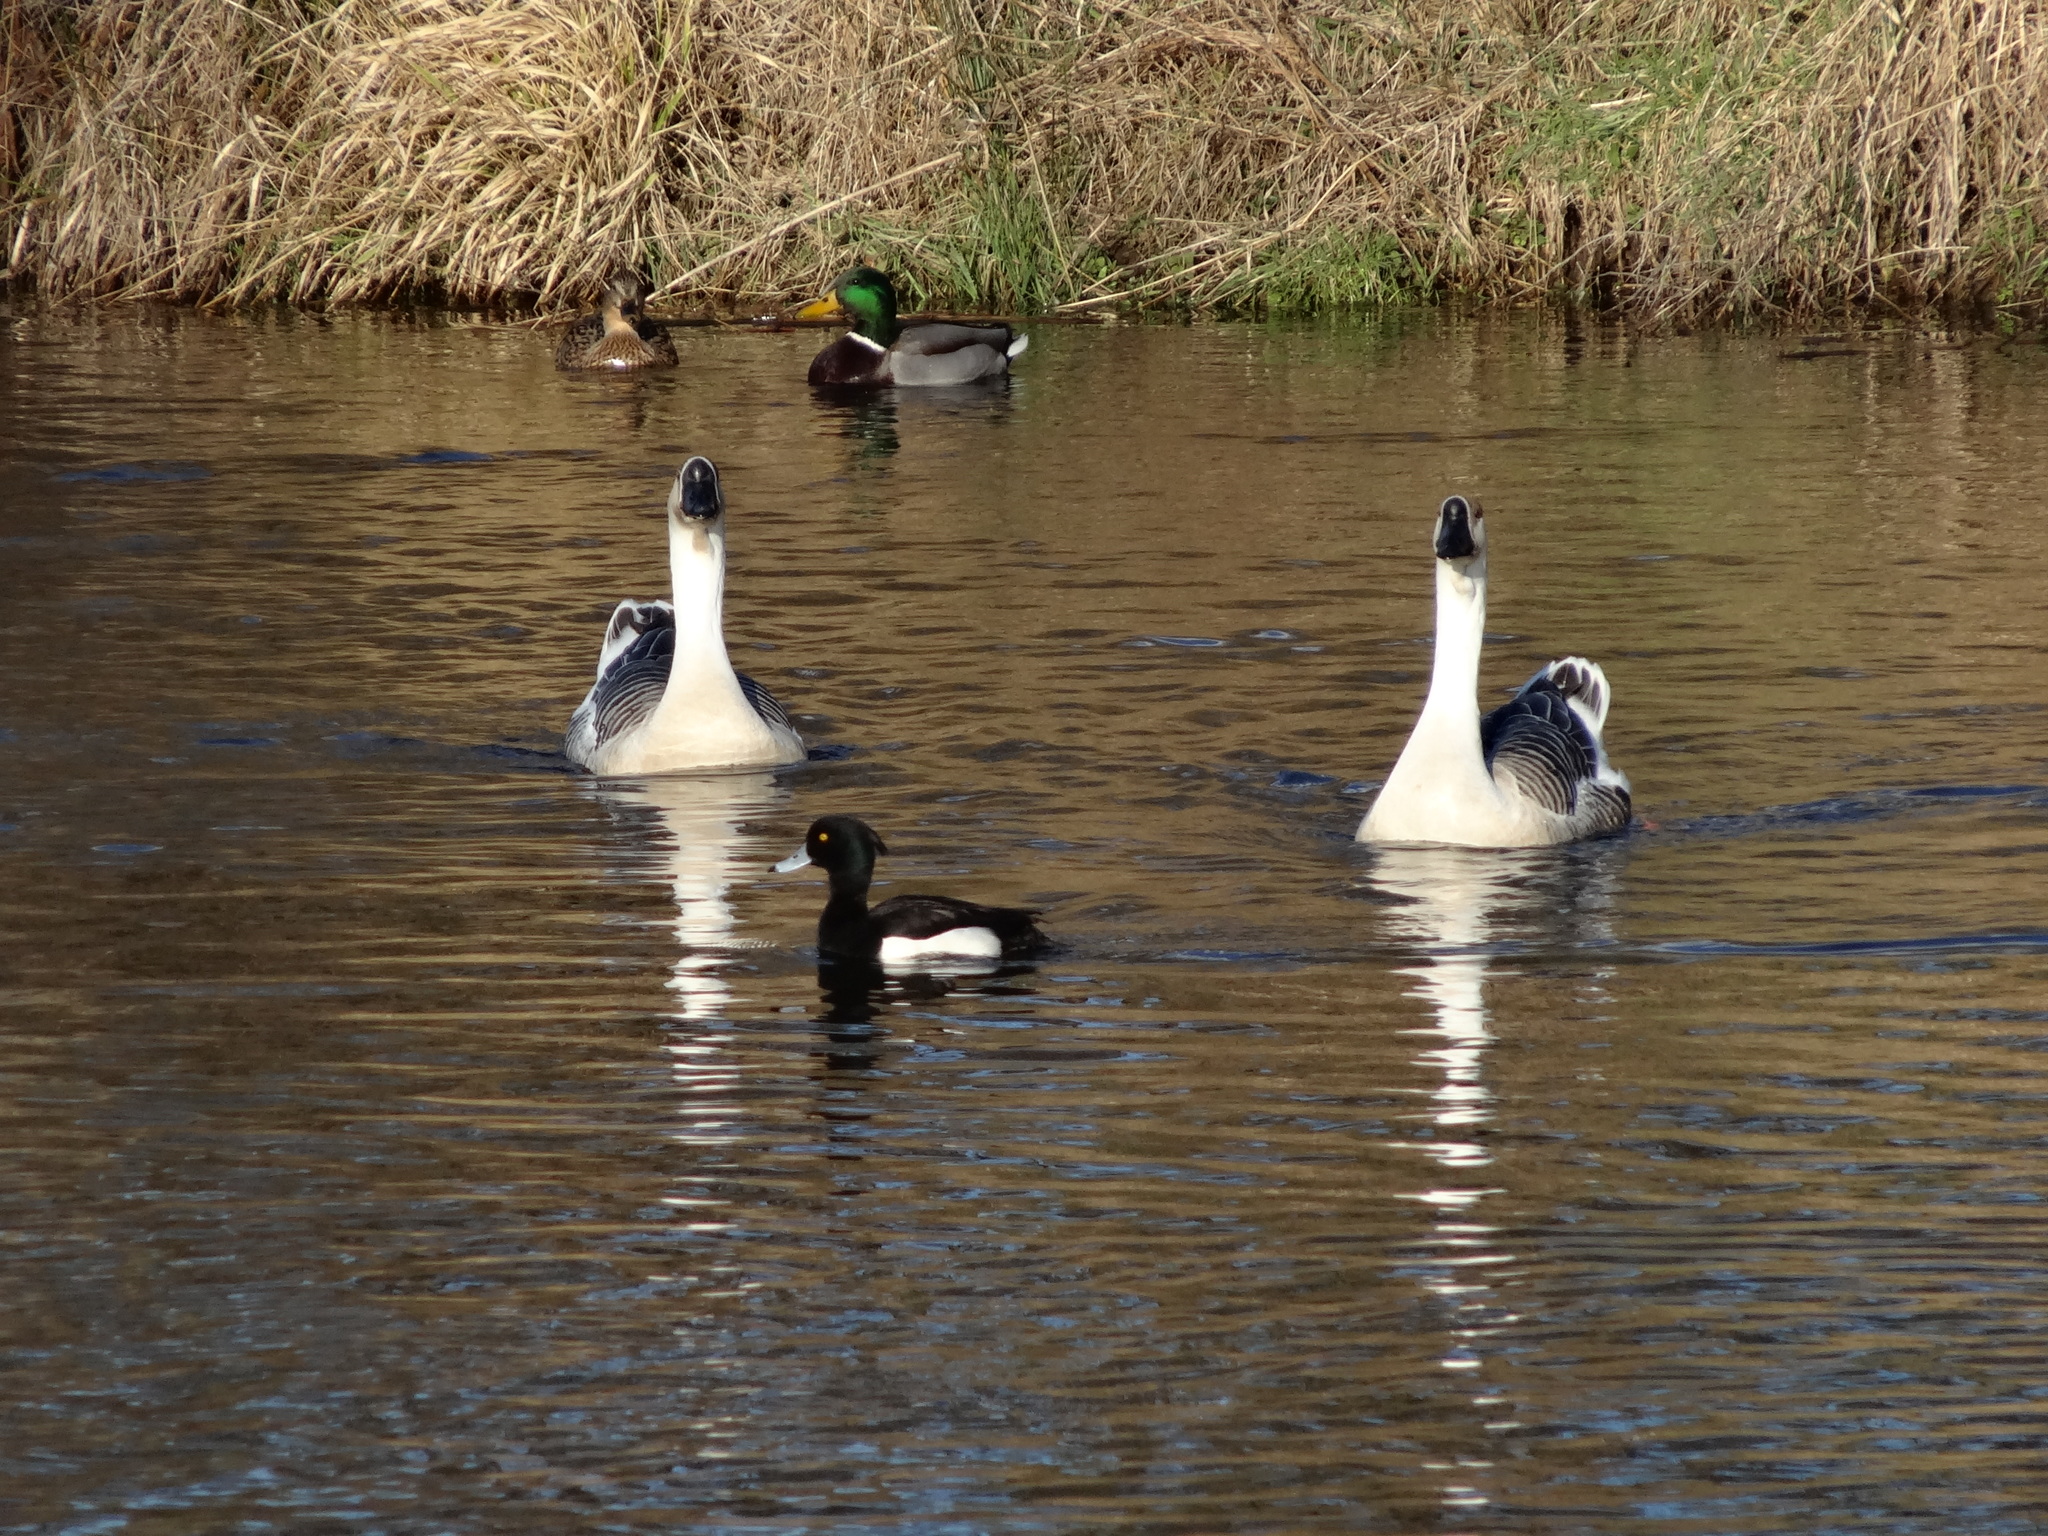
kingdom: Animalia
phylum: Chordata
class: Aves
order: Anseriformes
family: Anatidae
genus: Anser
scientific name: Anser cygnoides
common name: Swan goose
